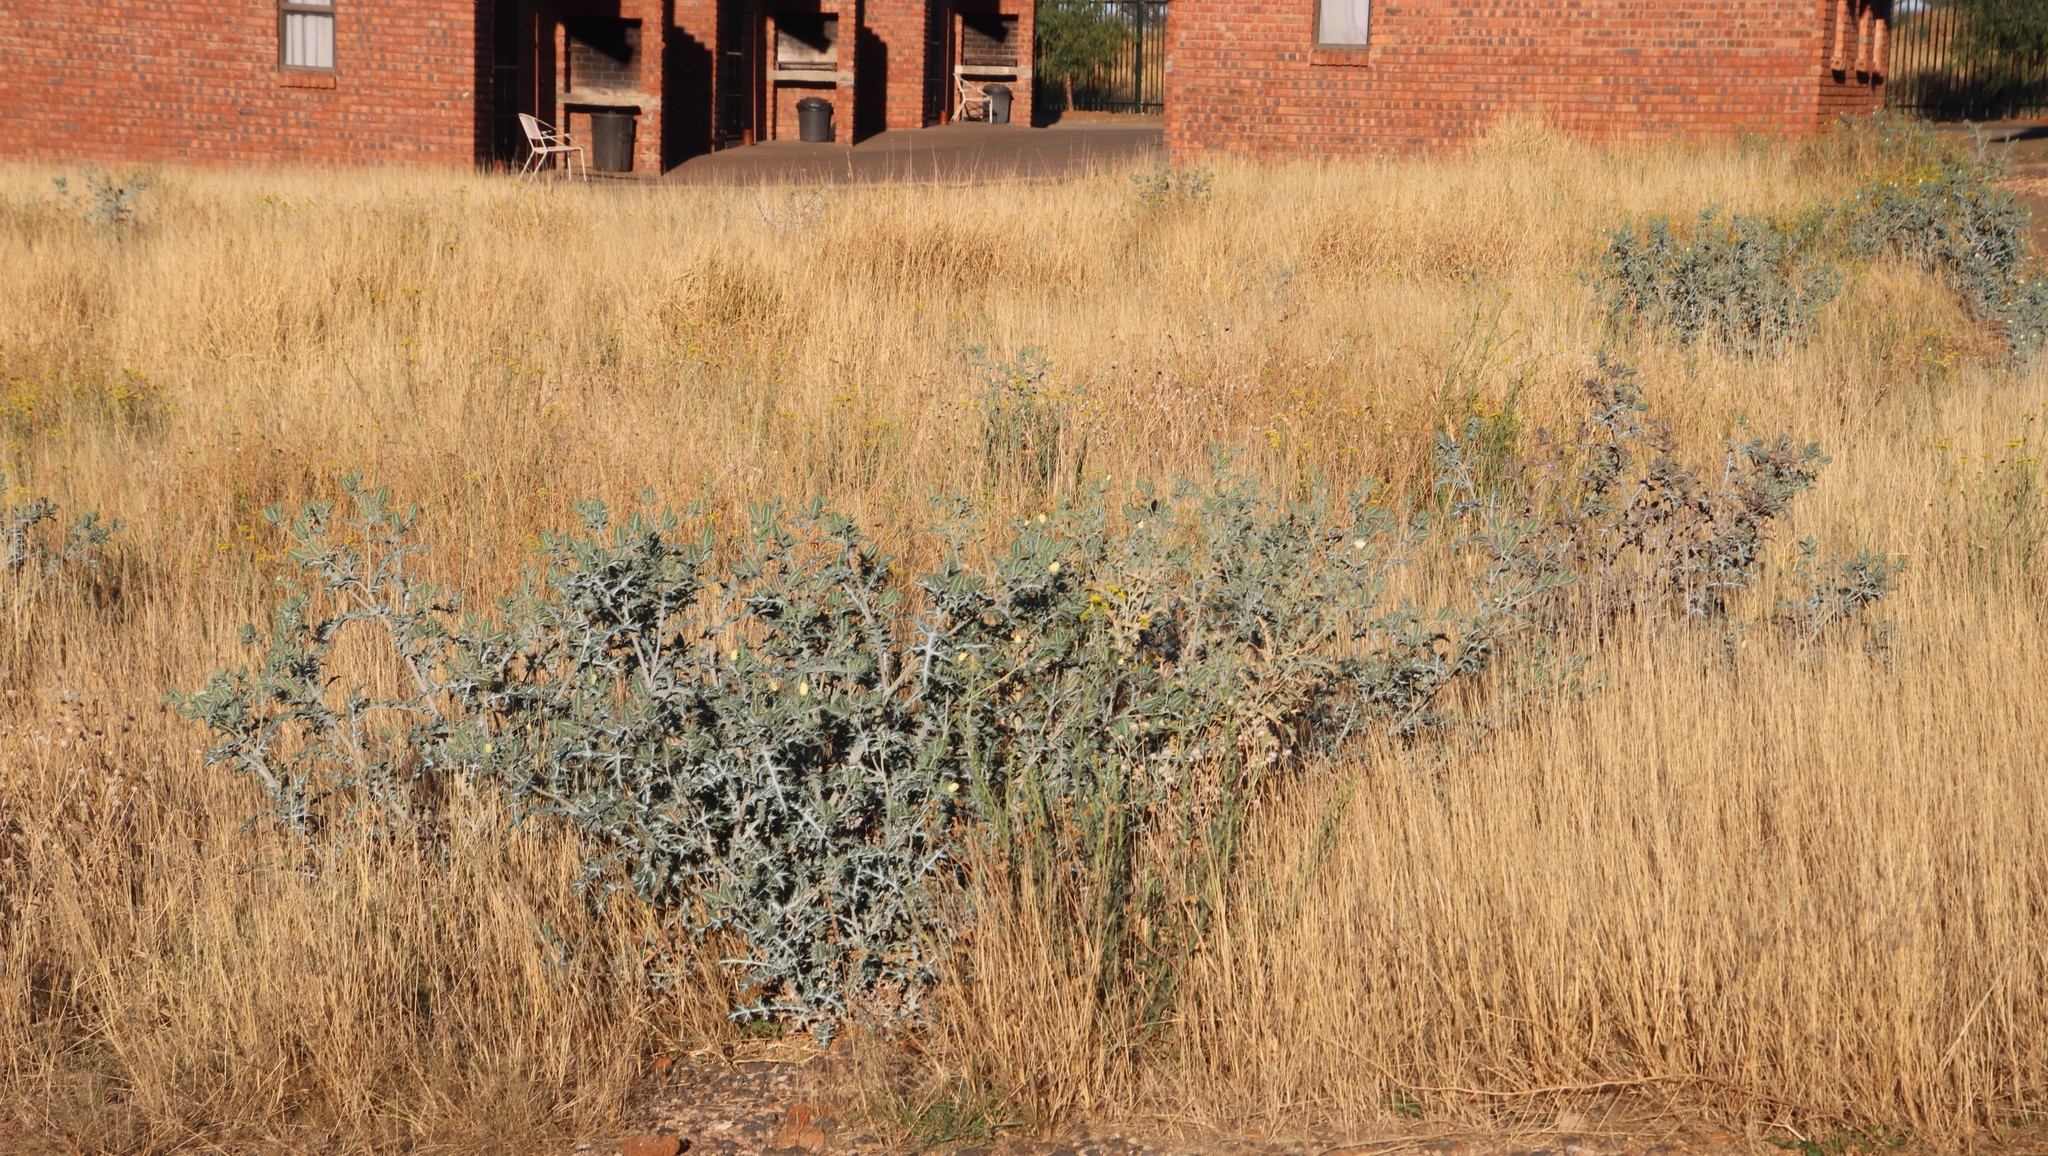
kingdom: Plantae
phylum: Tracheophyta
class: Magnoliopsida
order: Ranunculales
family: Papaveraceae
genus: Argemone
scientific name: Argemone ochroleuca
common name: White-flower mexican-poppy
